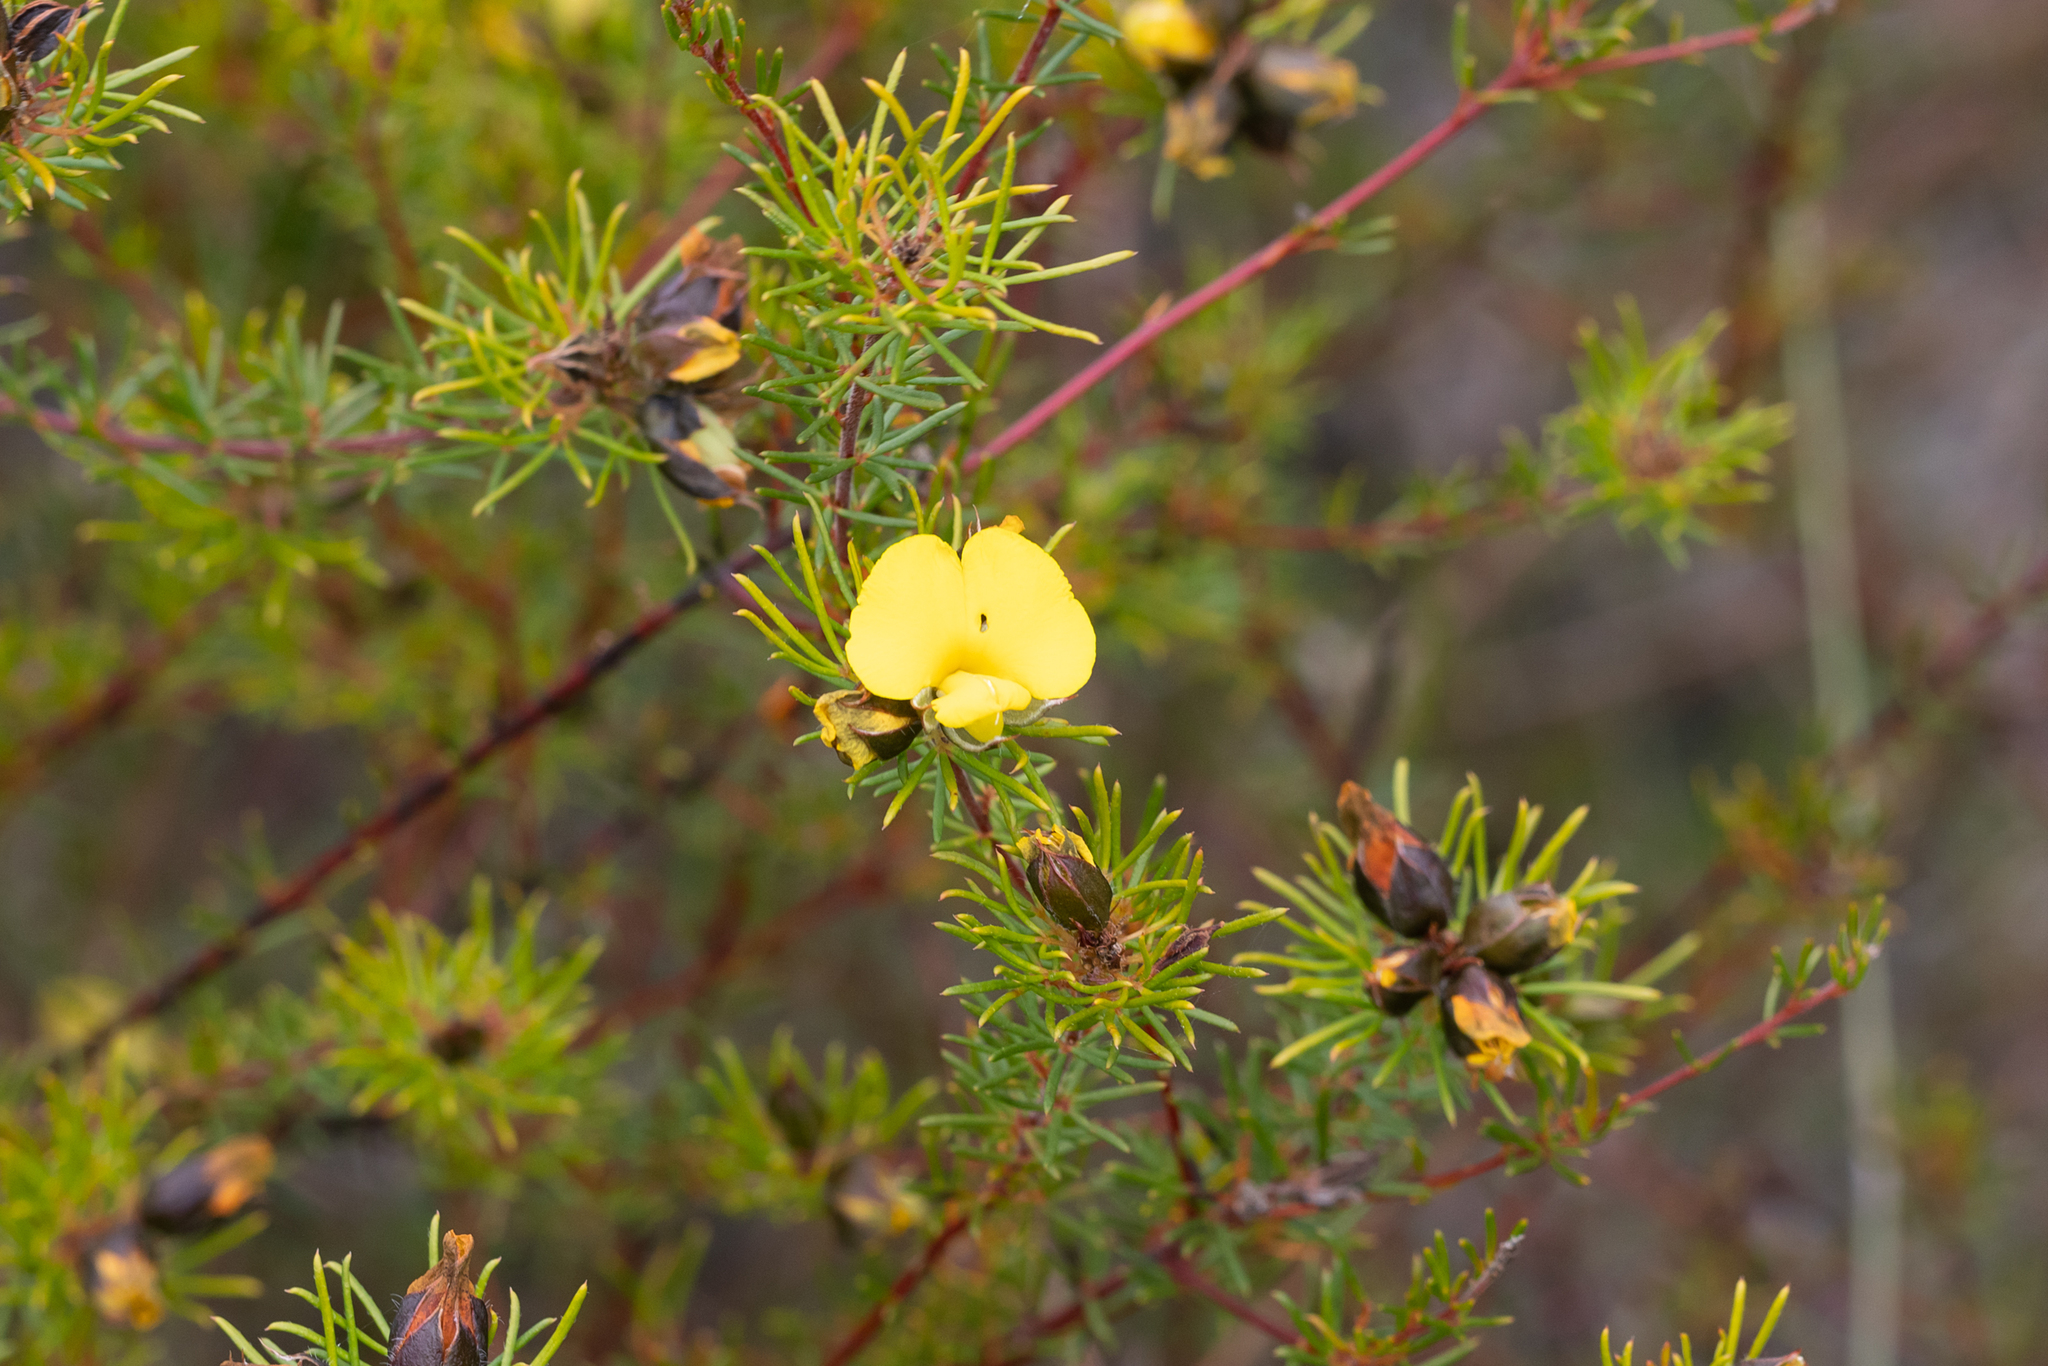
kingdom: Plantae
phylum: Tracheophyta
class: Magnoliopsida
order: Fabales
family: Fabaceae
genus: Gompholobium
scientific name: Gompholobium capitatum
